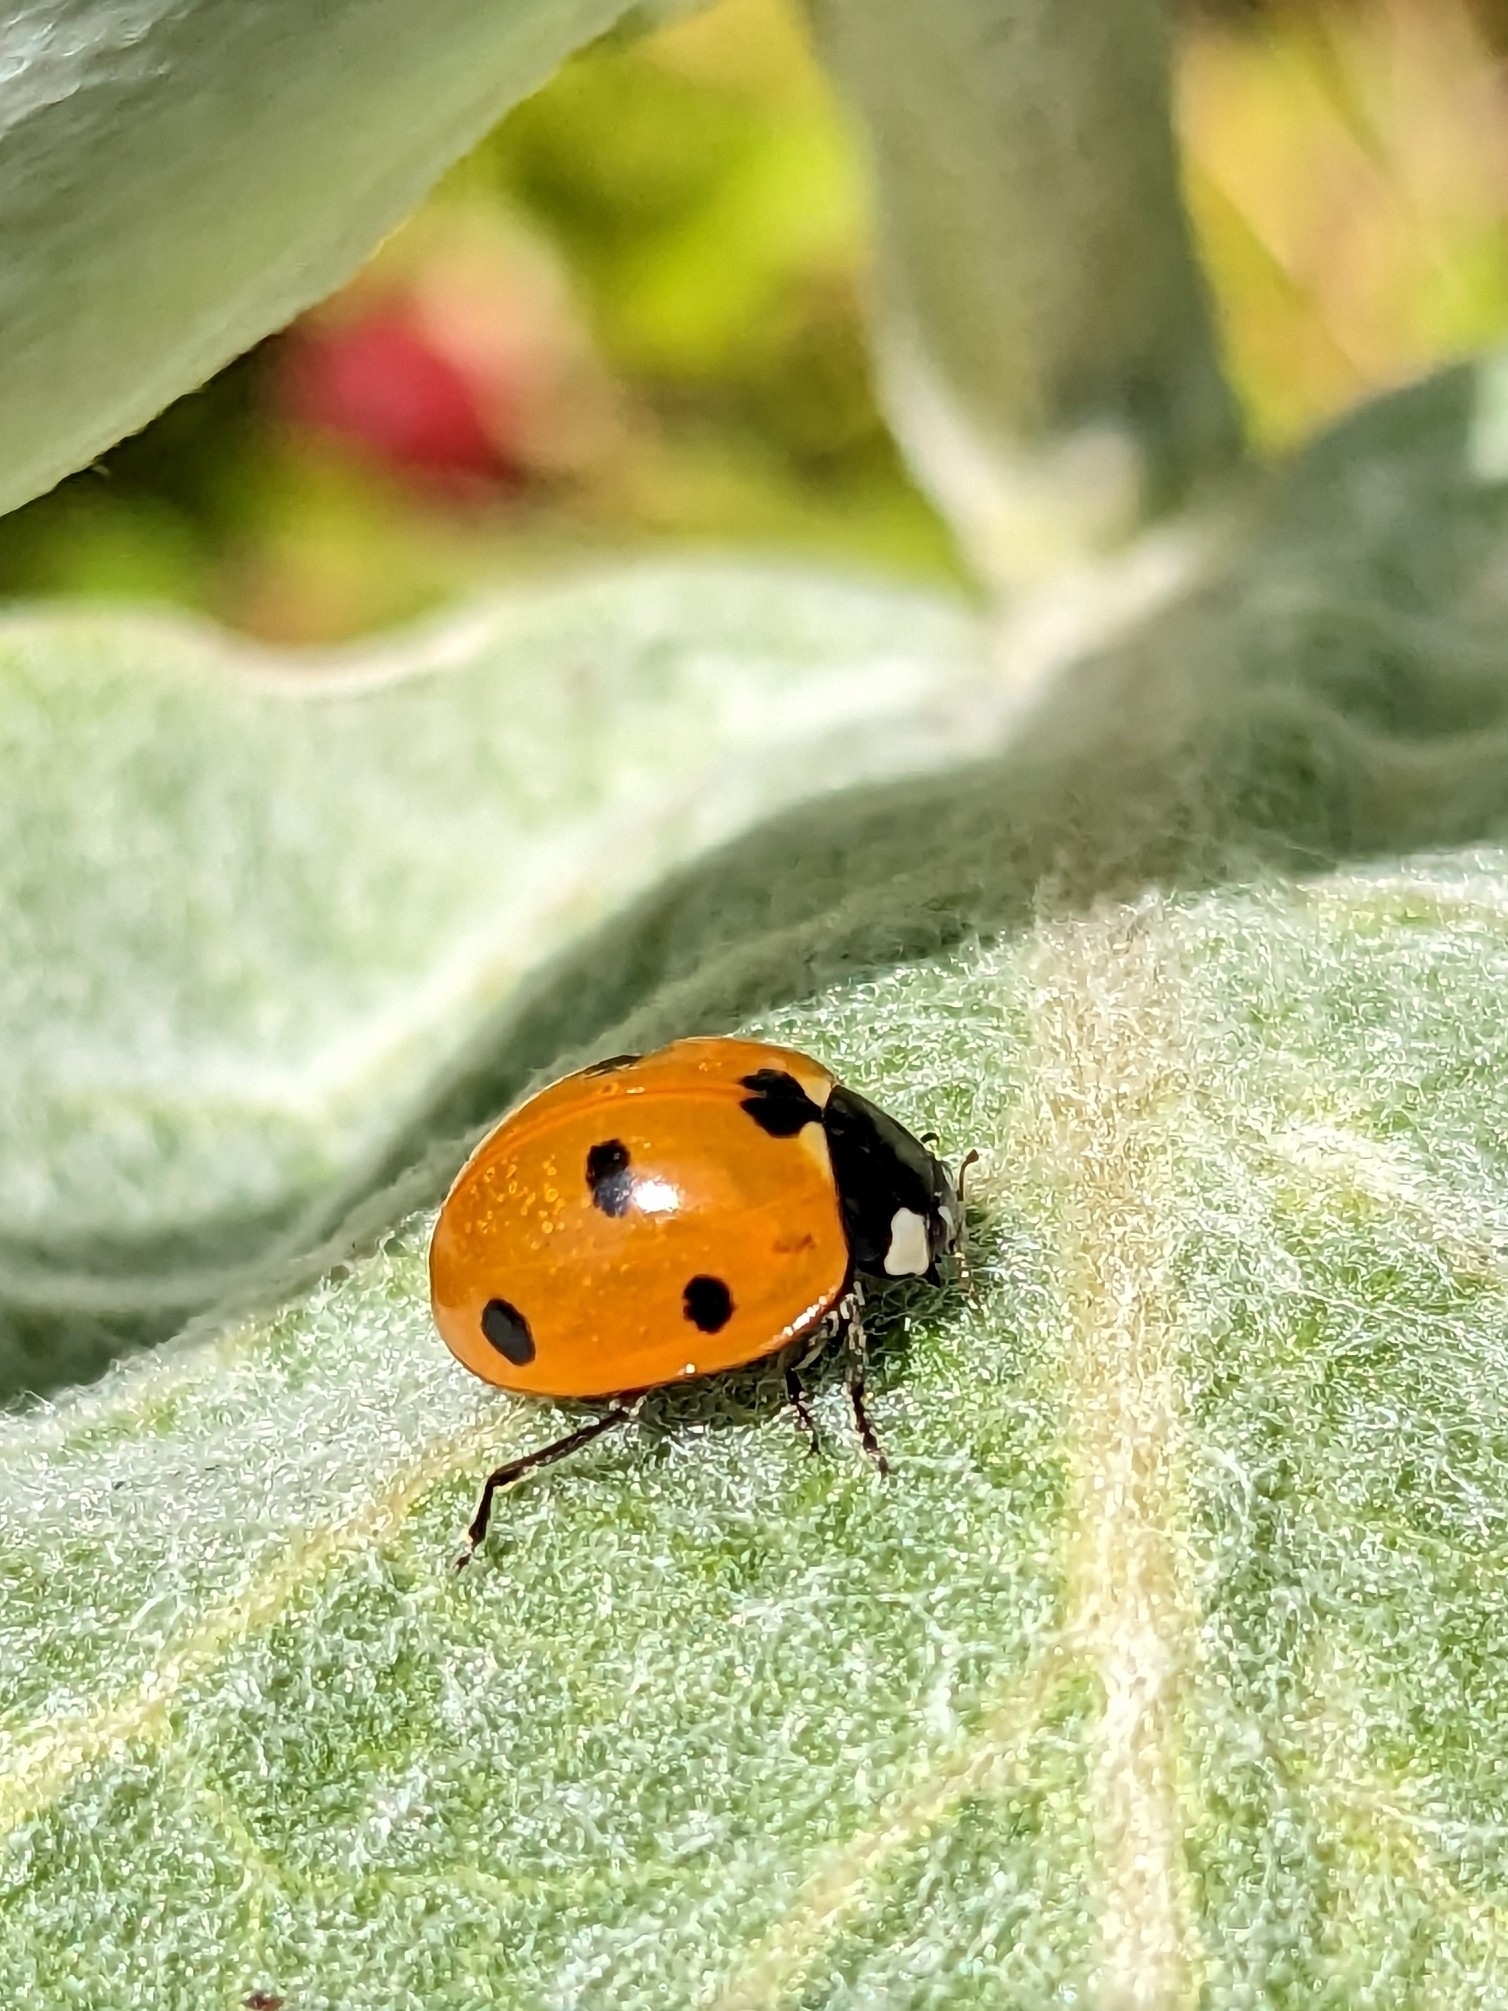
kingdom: Animalia
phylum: Arthropoda
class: Insecta
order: Coleoptera
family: Coccinellidae
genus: Coccinella
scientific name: Coccinella septempunctata
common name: Sevenspotted lady beetle
